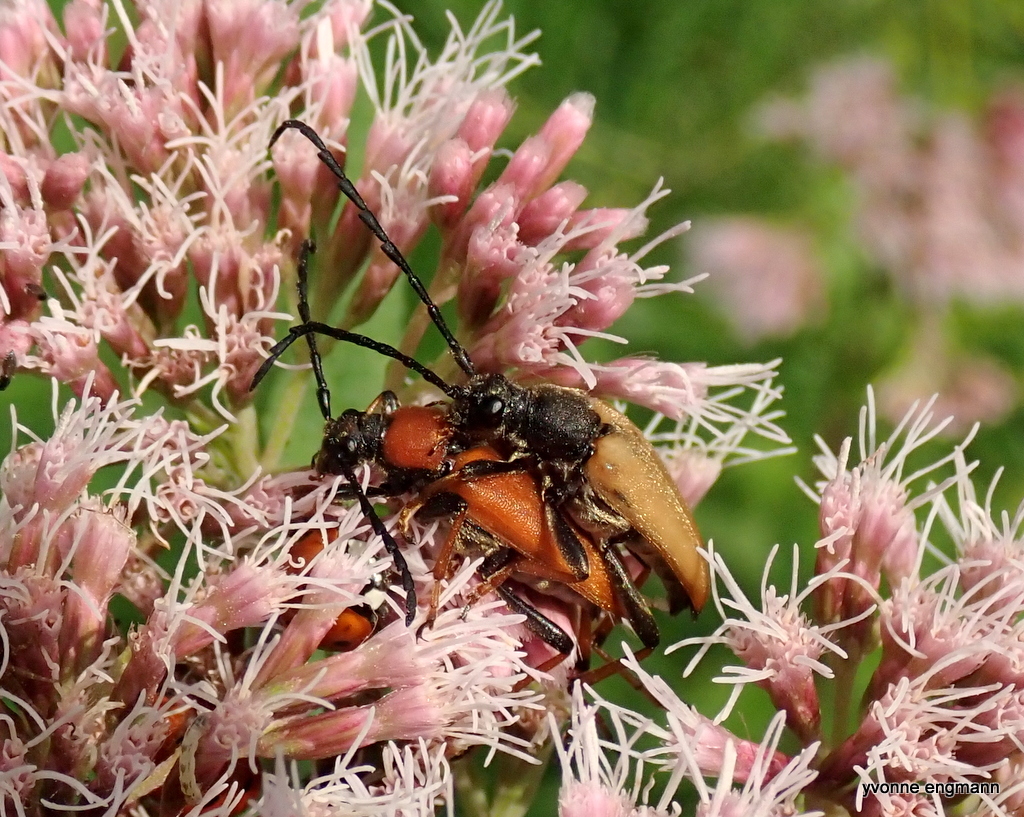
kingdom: Animalia
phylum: Arthropoda
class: Insecta
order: Coleoptera
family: Cerambycidae
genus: Stictoleptura
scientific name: Stictoleptura rubra
